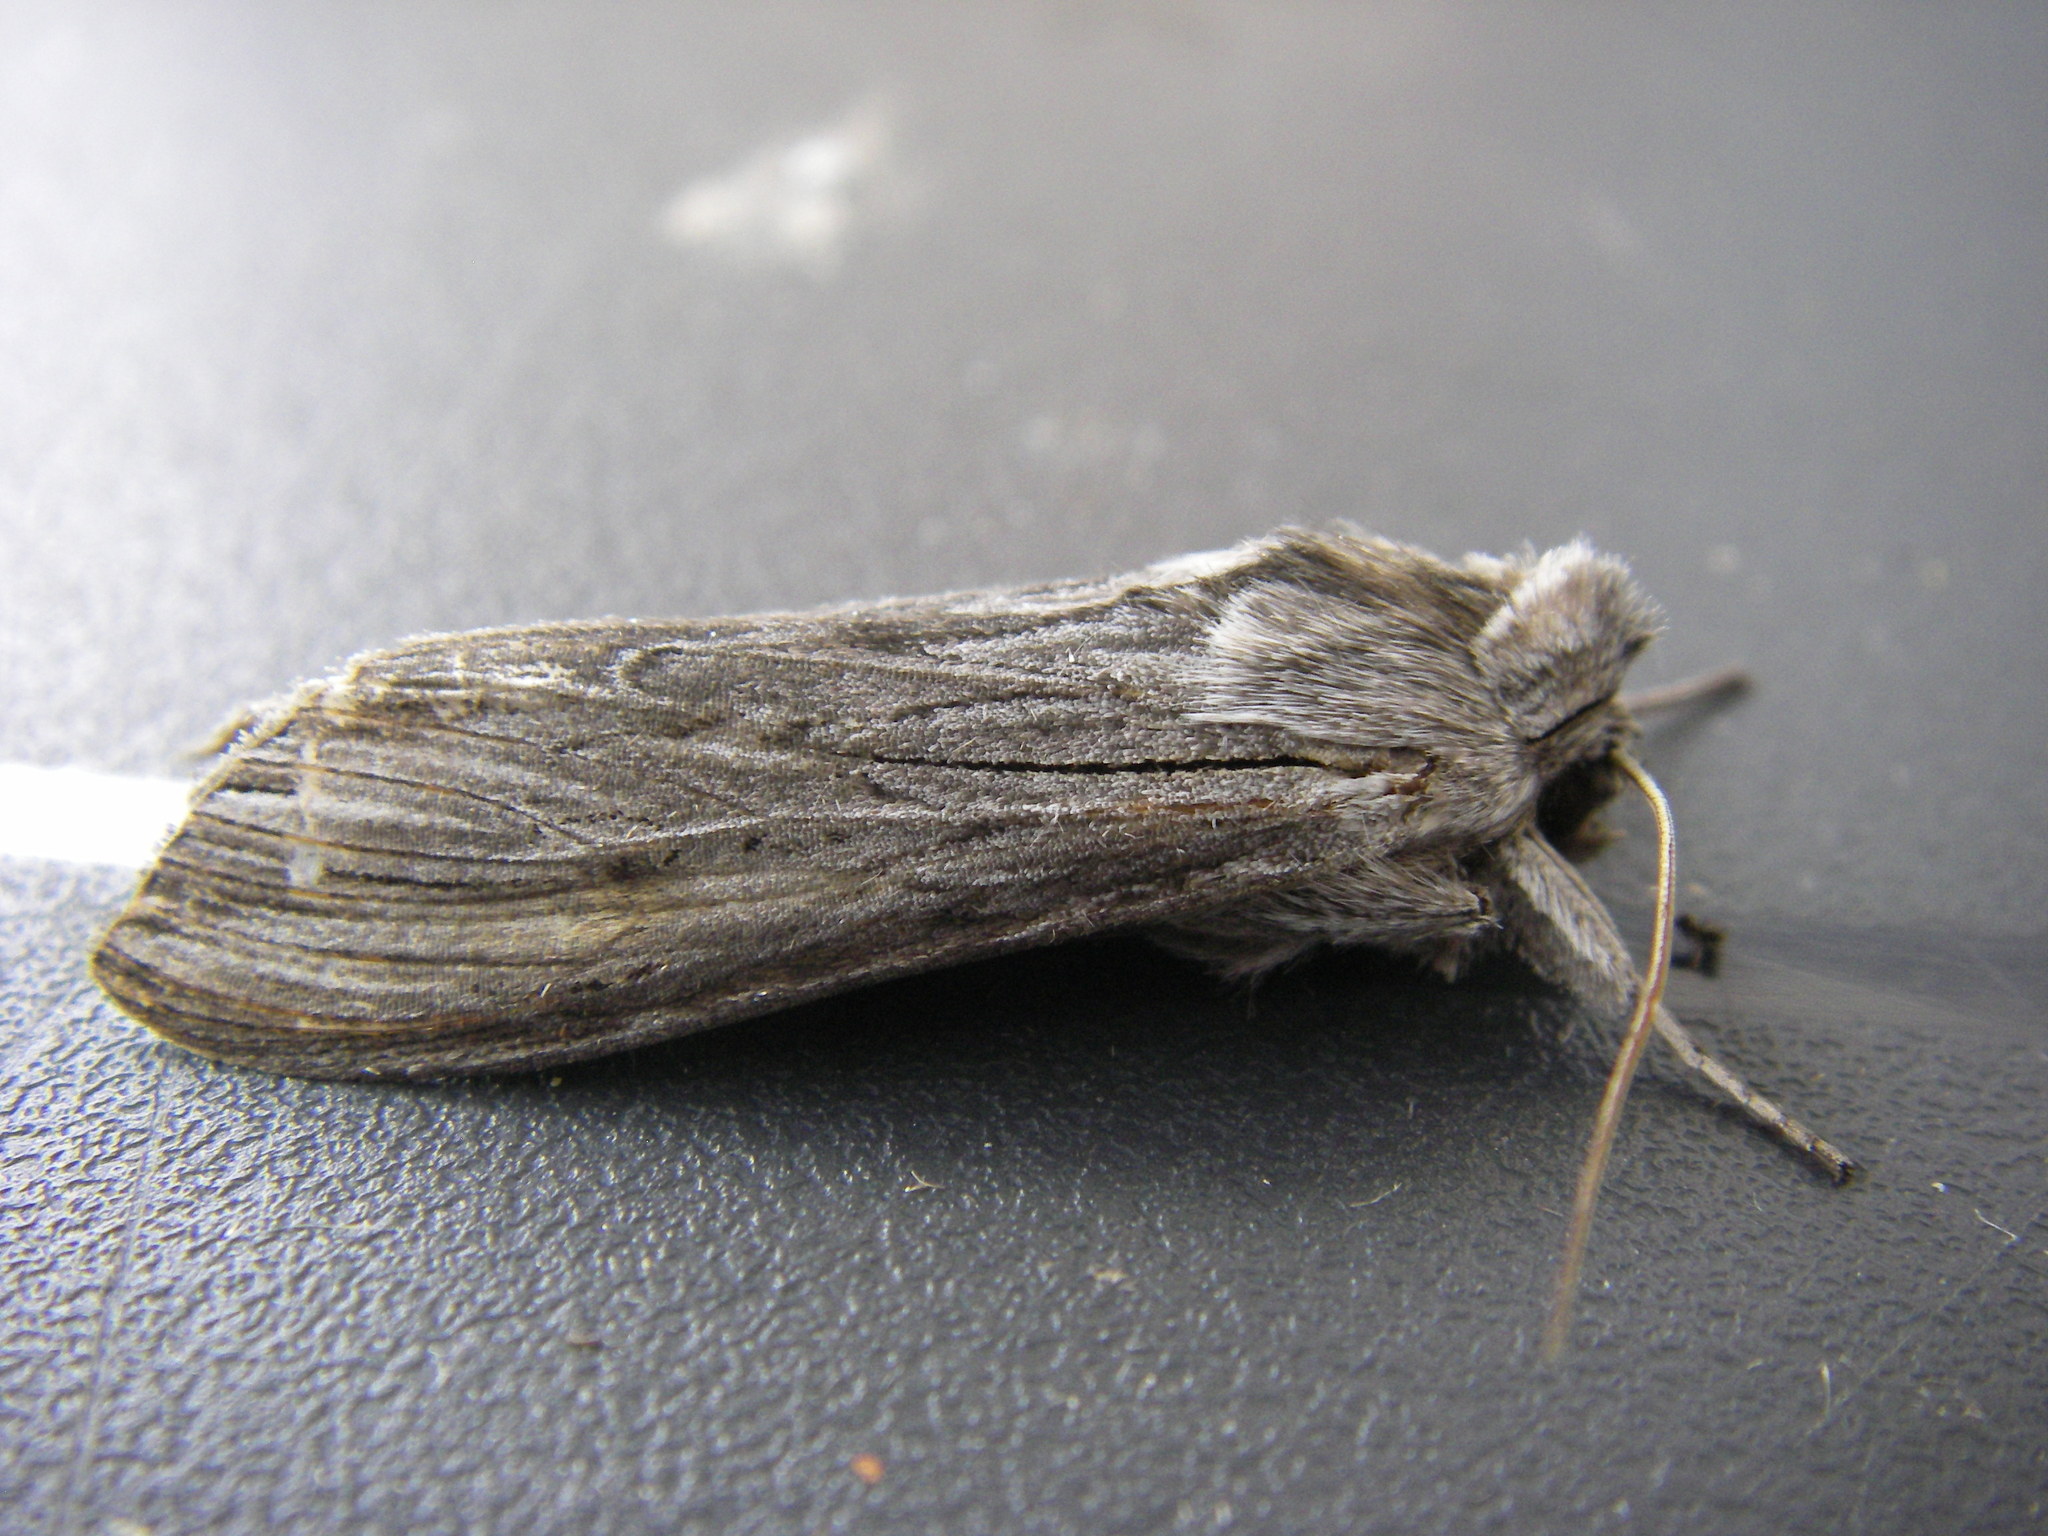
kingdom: Animalia
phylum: Arthropoda
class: Insecta
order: Lepidoptera
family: Noctuidae
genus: Cucullia
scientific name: Cucullia umbratica
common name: Shark
